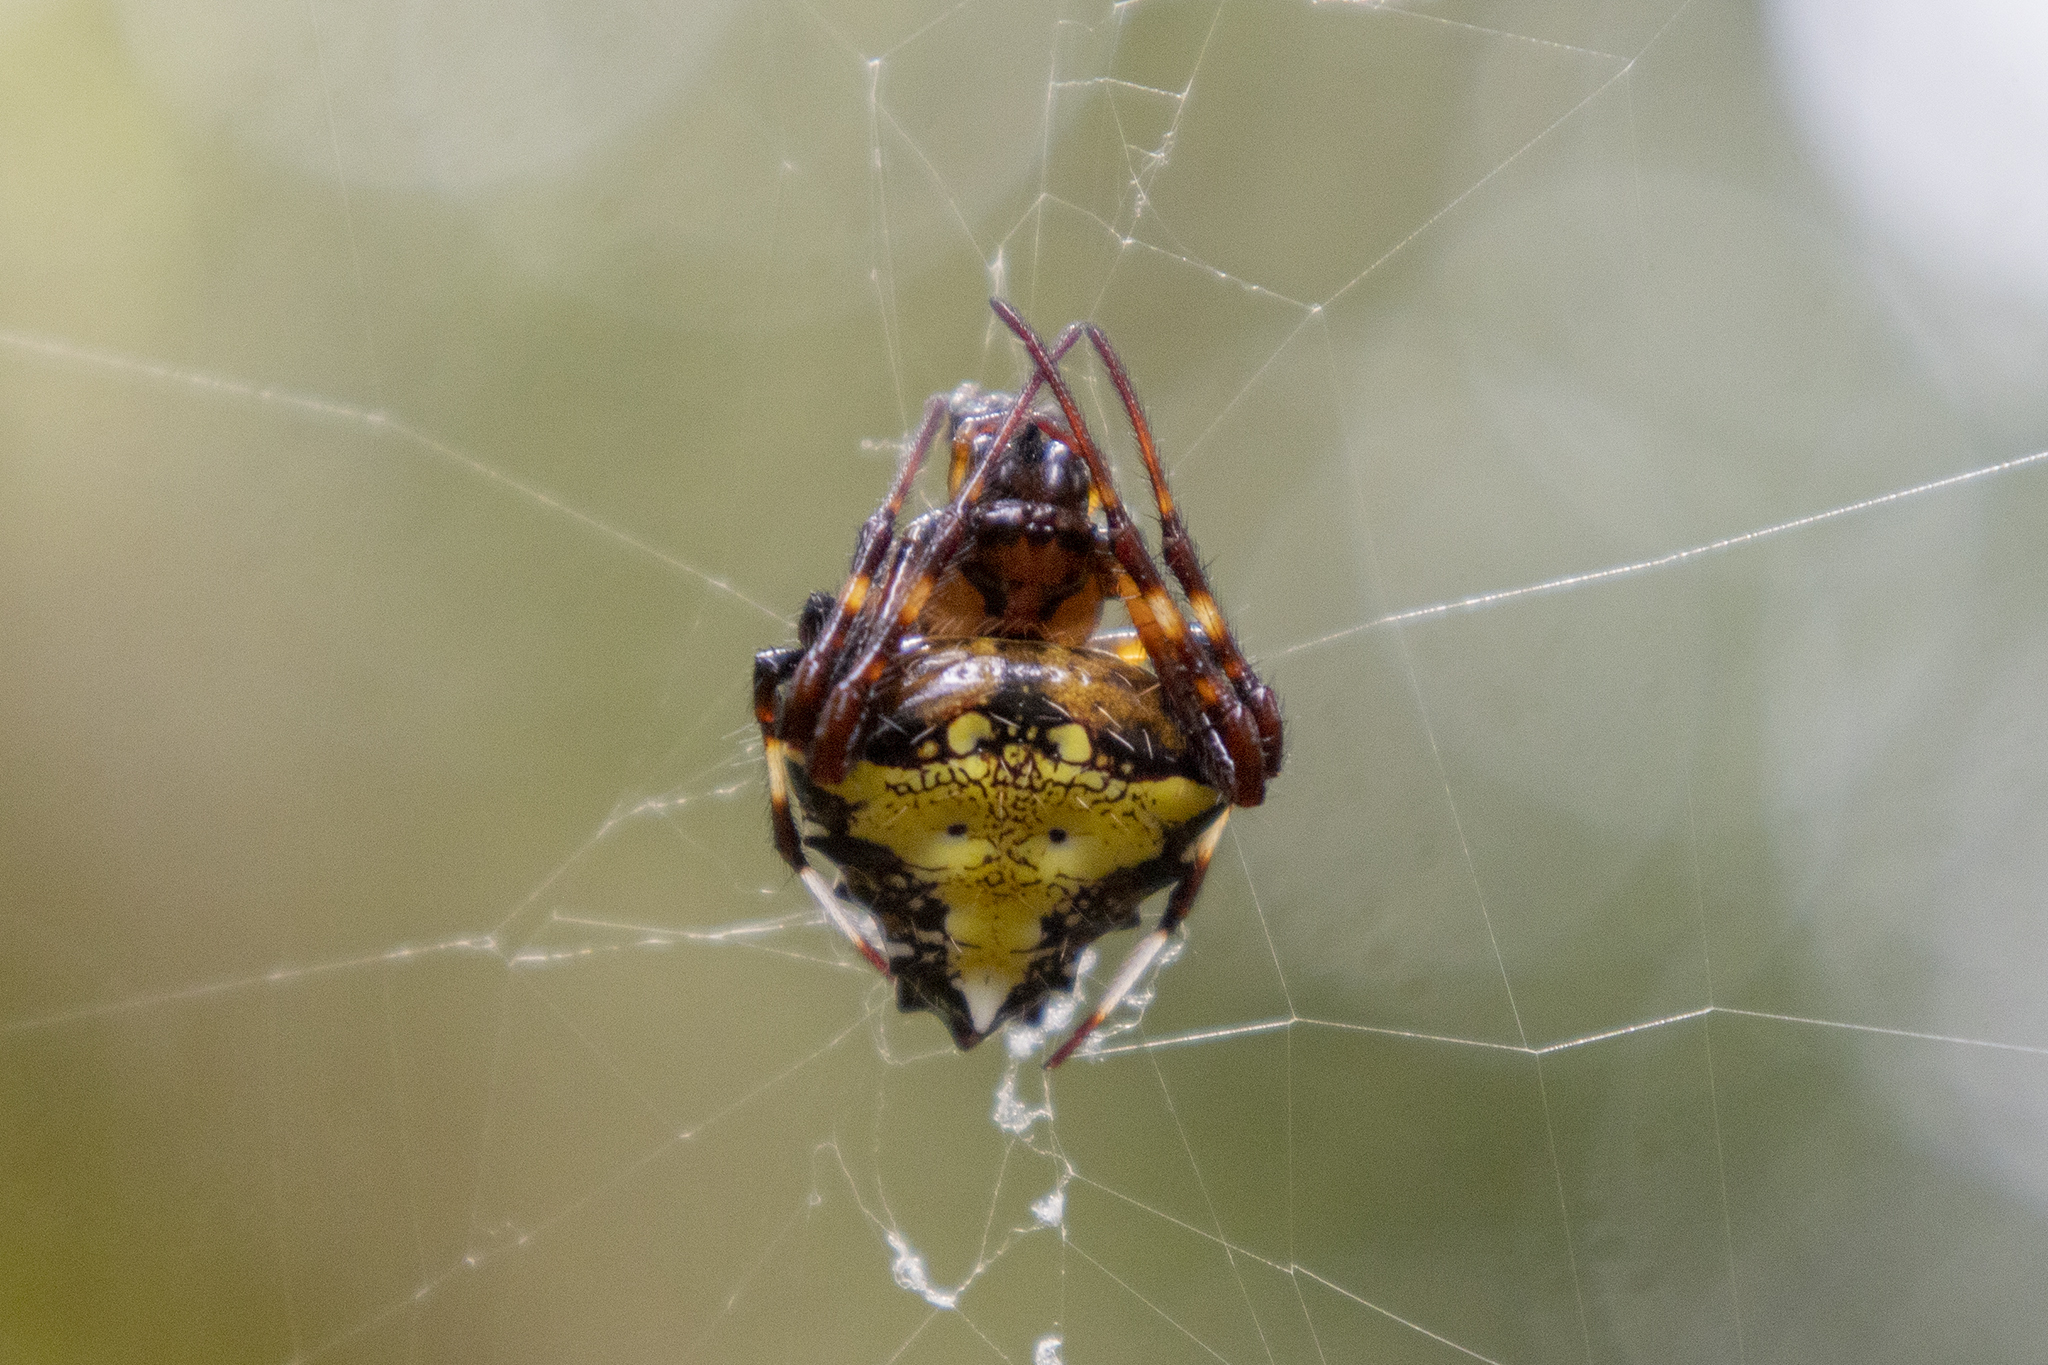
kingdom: Animalia
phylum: Arthropoda
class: Arachnida
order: Araneae
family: Araneidae
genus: Verrucosa
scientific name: Verrucosa arenata
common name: Orb weavers
